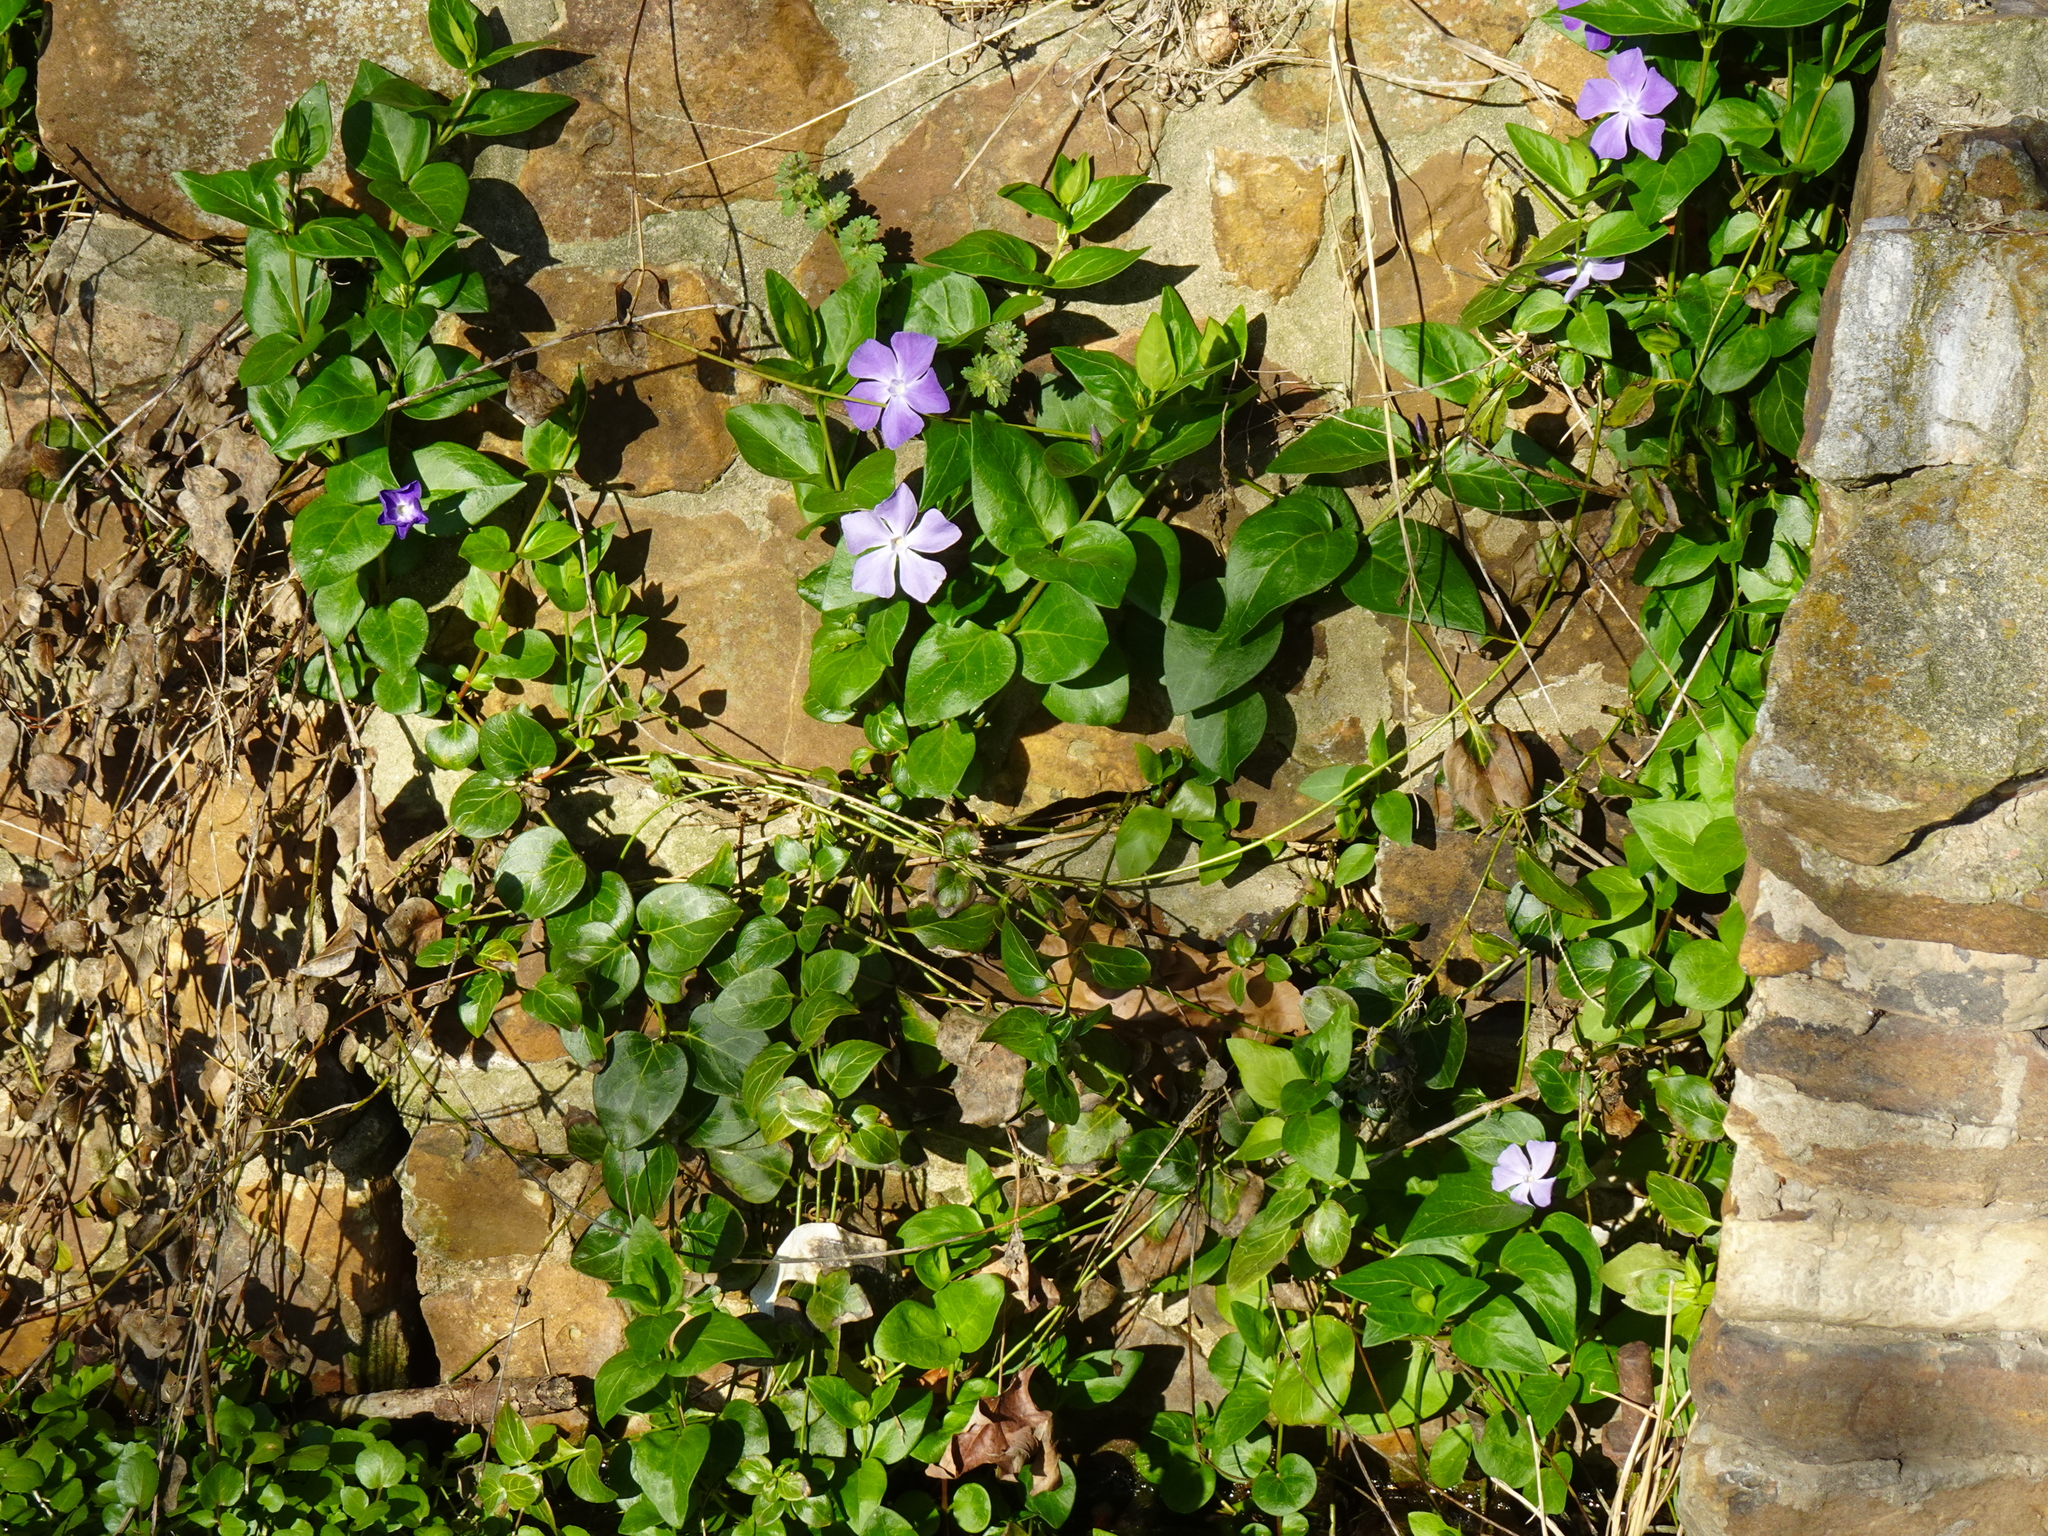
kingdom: Plantae
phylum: Tracheophyta
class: Magnoliopsida
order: Gentianales
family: Apocynaceae
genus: Vinca
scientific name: Vinca major
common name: Greater periwinkle
